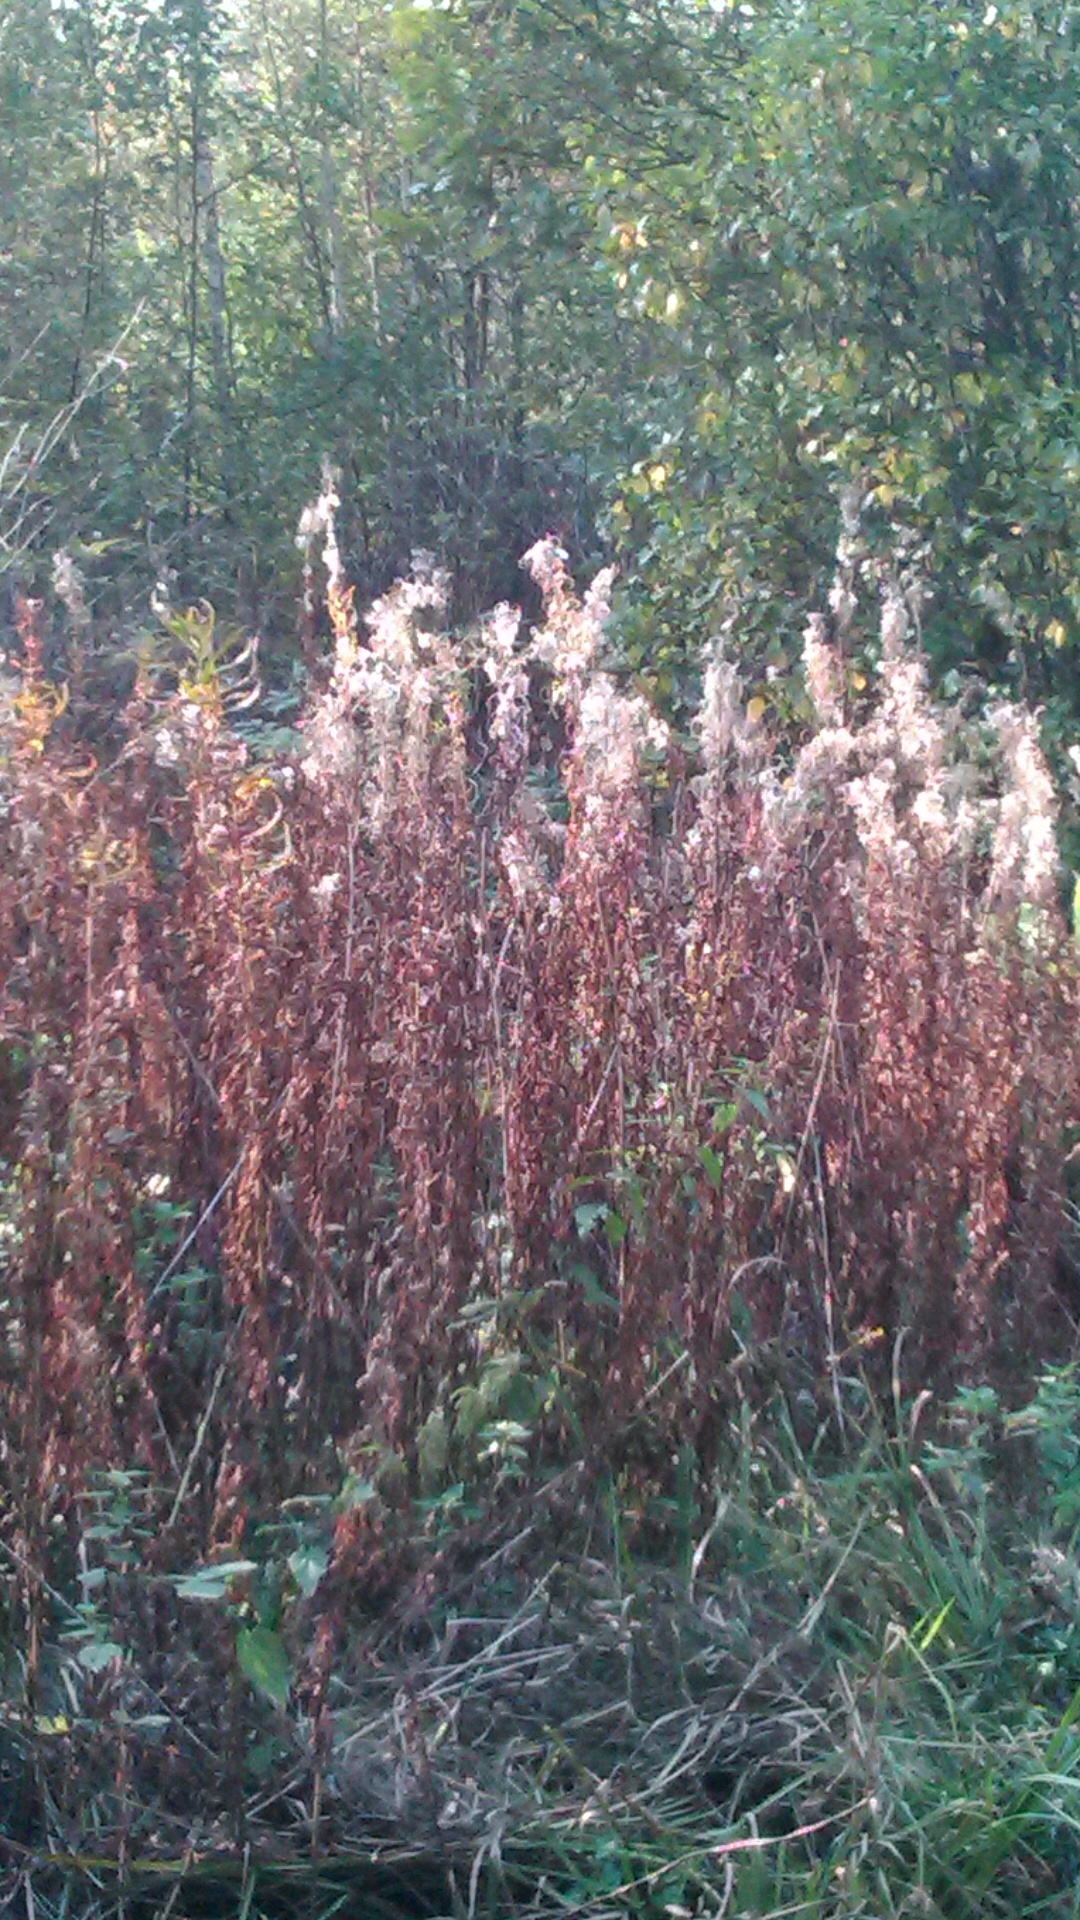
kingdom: Plantae
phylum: Tracheophyta
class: Magnoliopsida
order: Myrtales
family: Onagraceae
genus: Chamaenerion
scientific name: Chamaenerion angustifolium
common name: Fireweed
